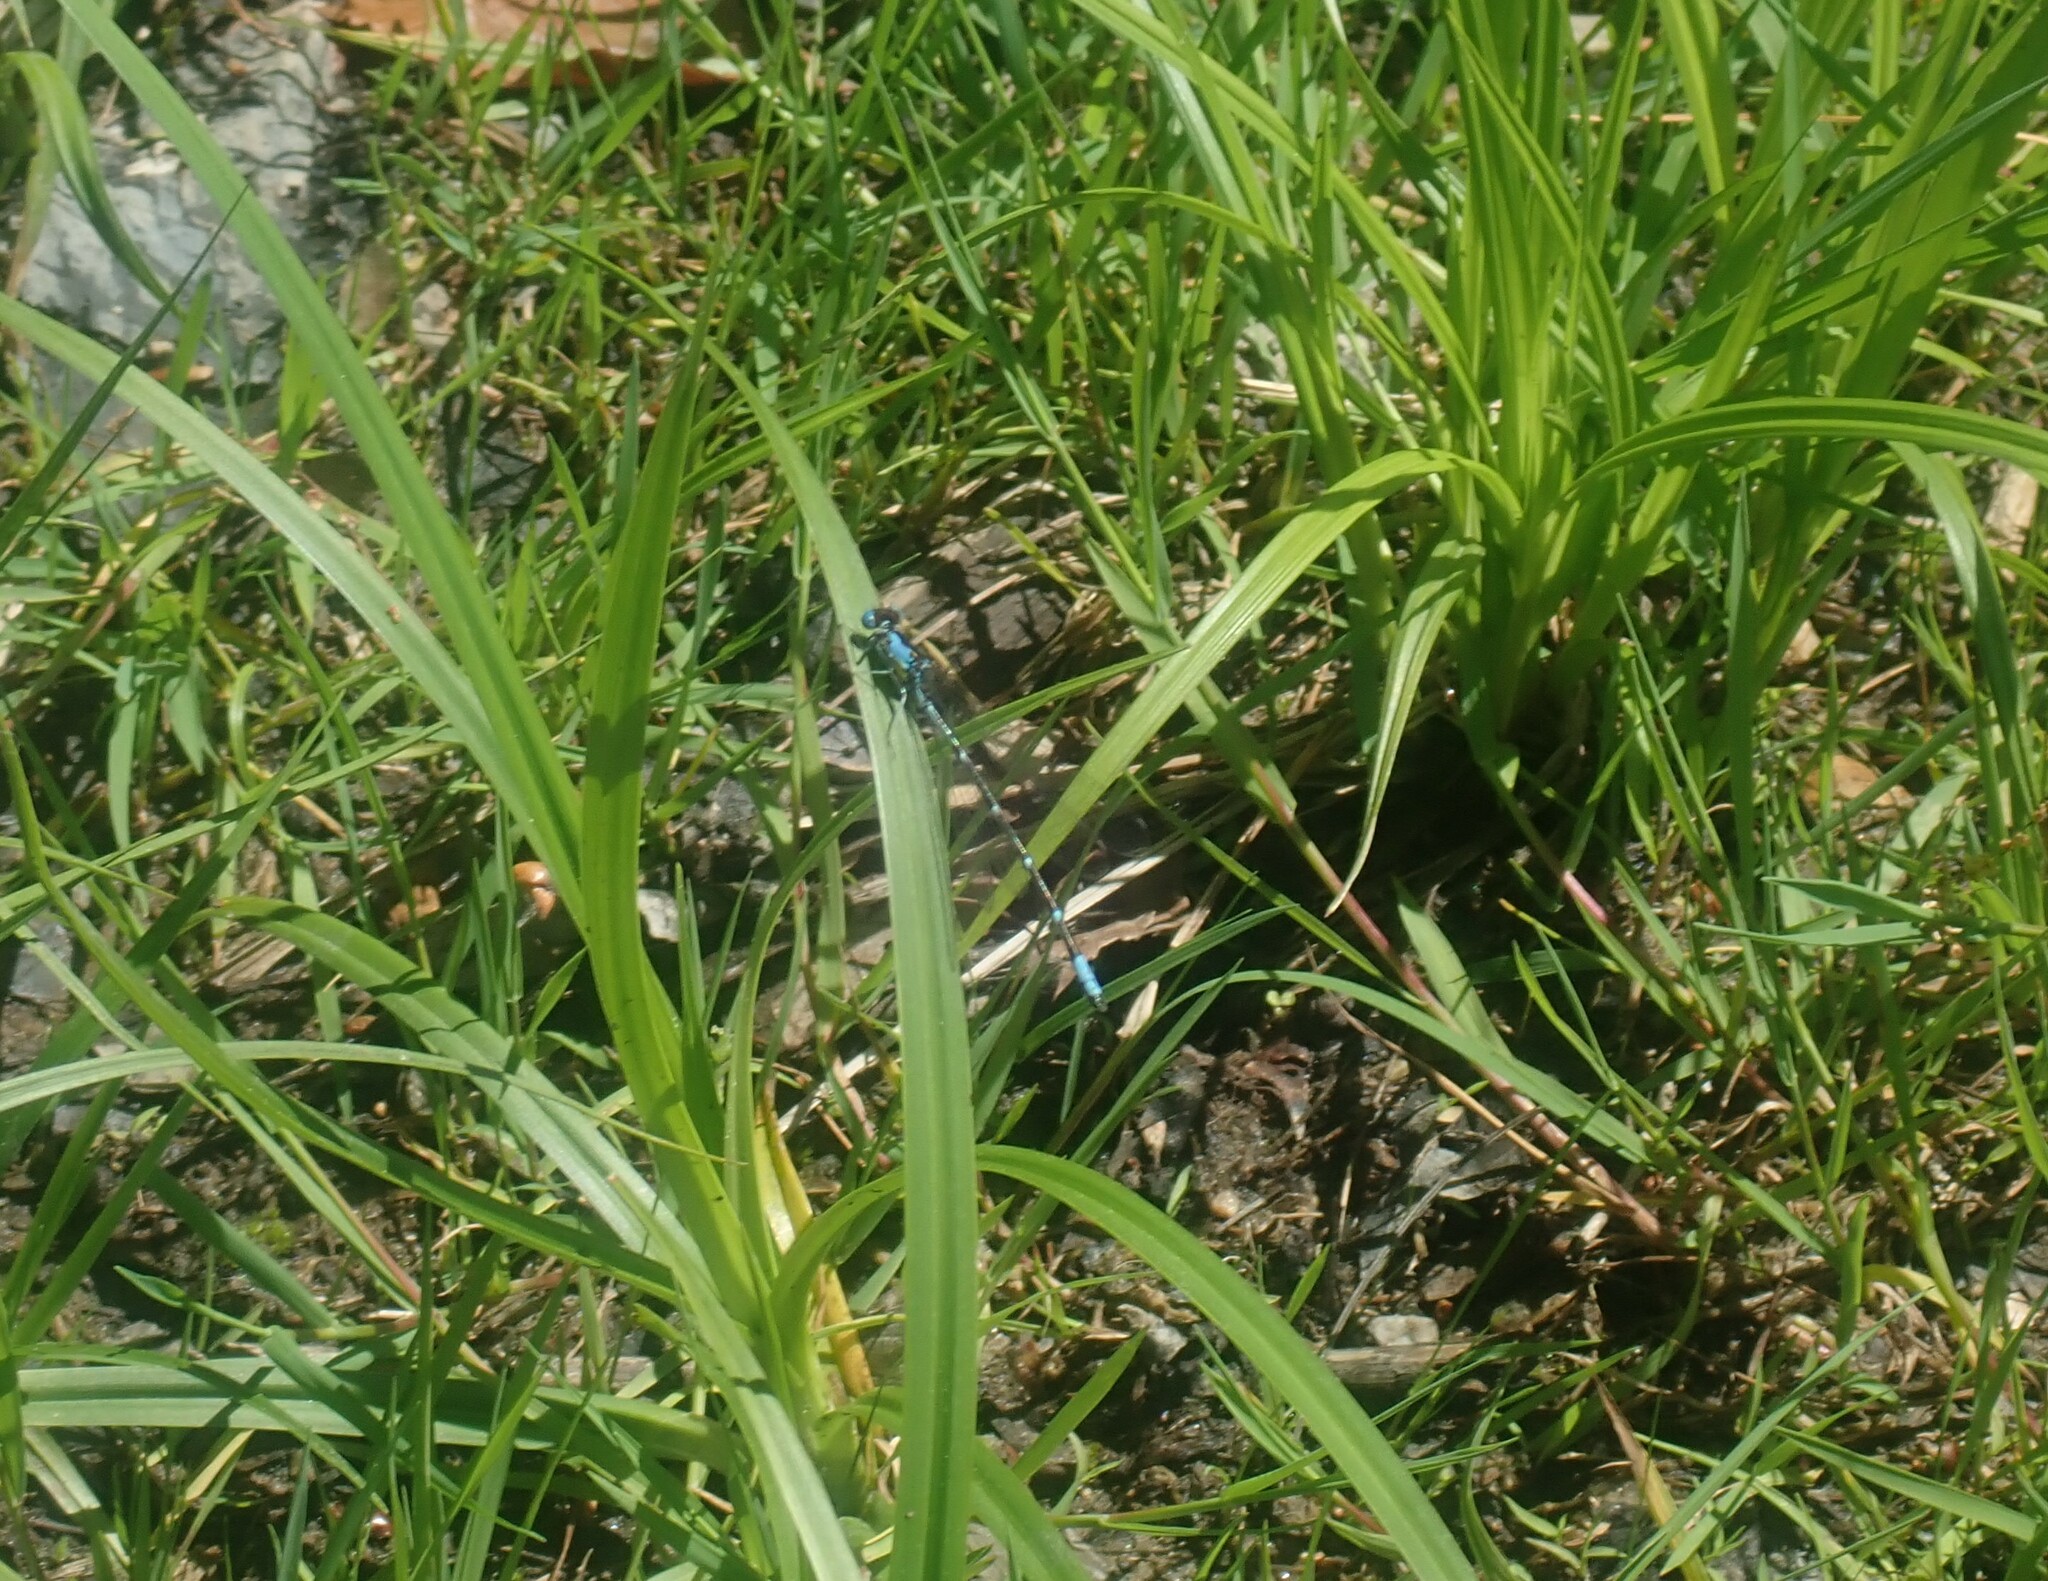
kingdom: Animalia
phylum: Arthropoda
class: Insecta
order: Odonata
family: Coenagrionidae
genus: Chromagrion
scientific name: Chromagrion conditum
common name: Aurora damsel
